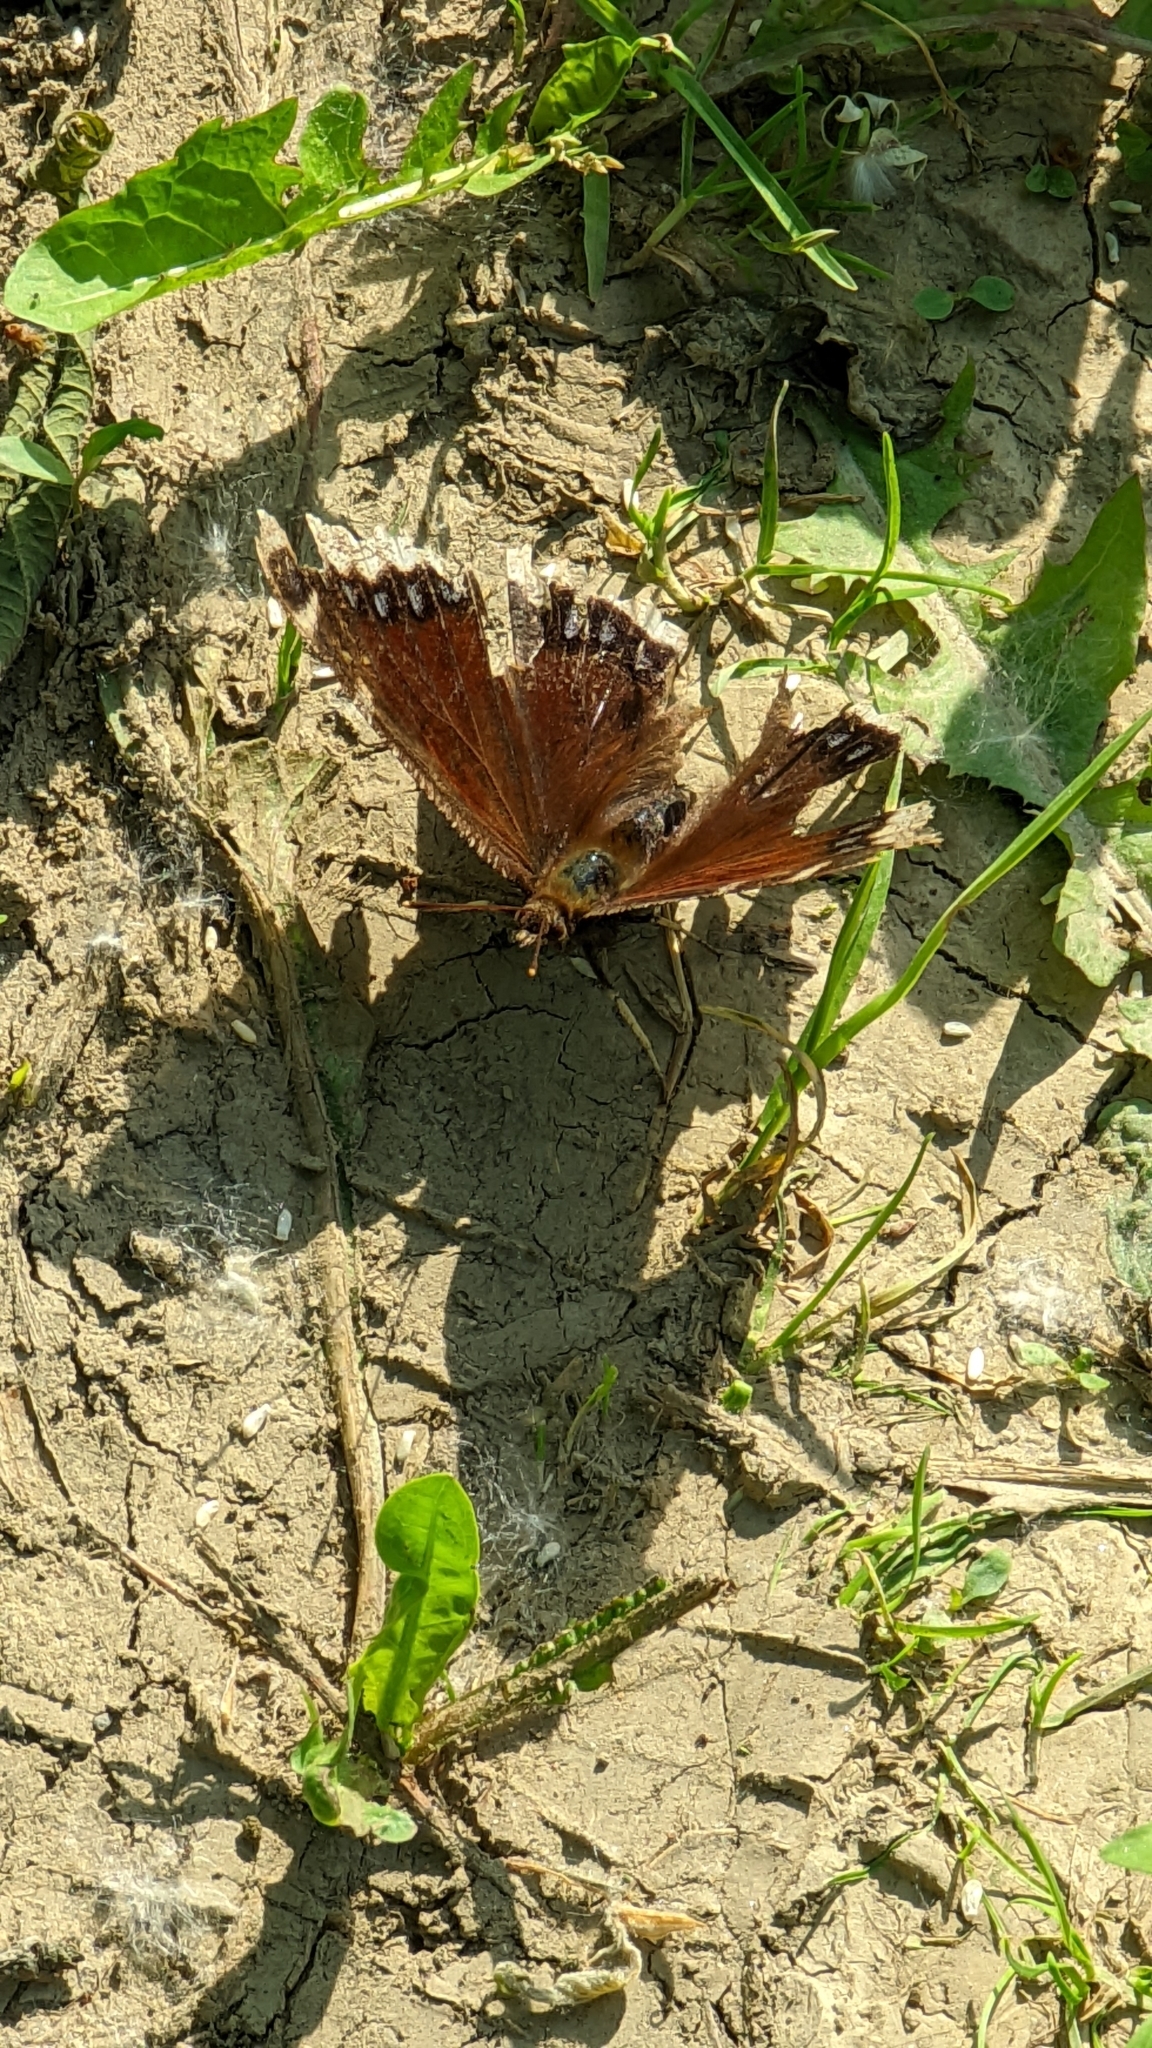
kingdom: Animalia
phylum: Arthropoda
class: Insecta
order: Lepidoptera
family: Nymphalidae
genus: Nymphalis
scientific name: Nymphalis antiopa
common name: Camberwell beauty
